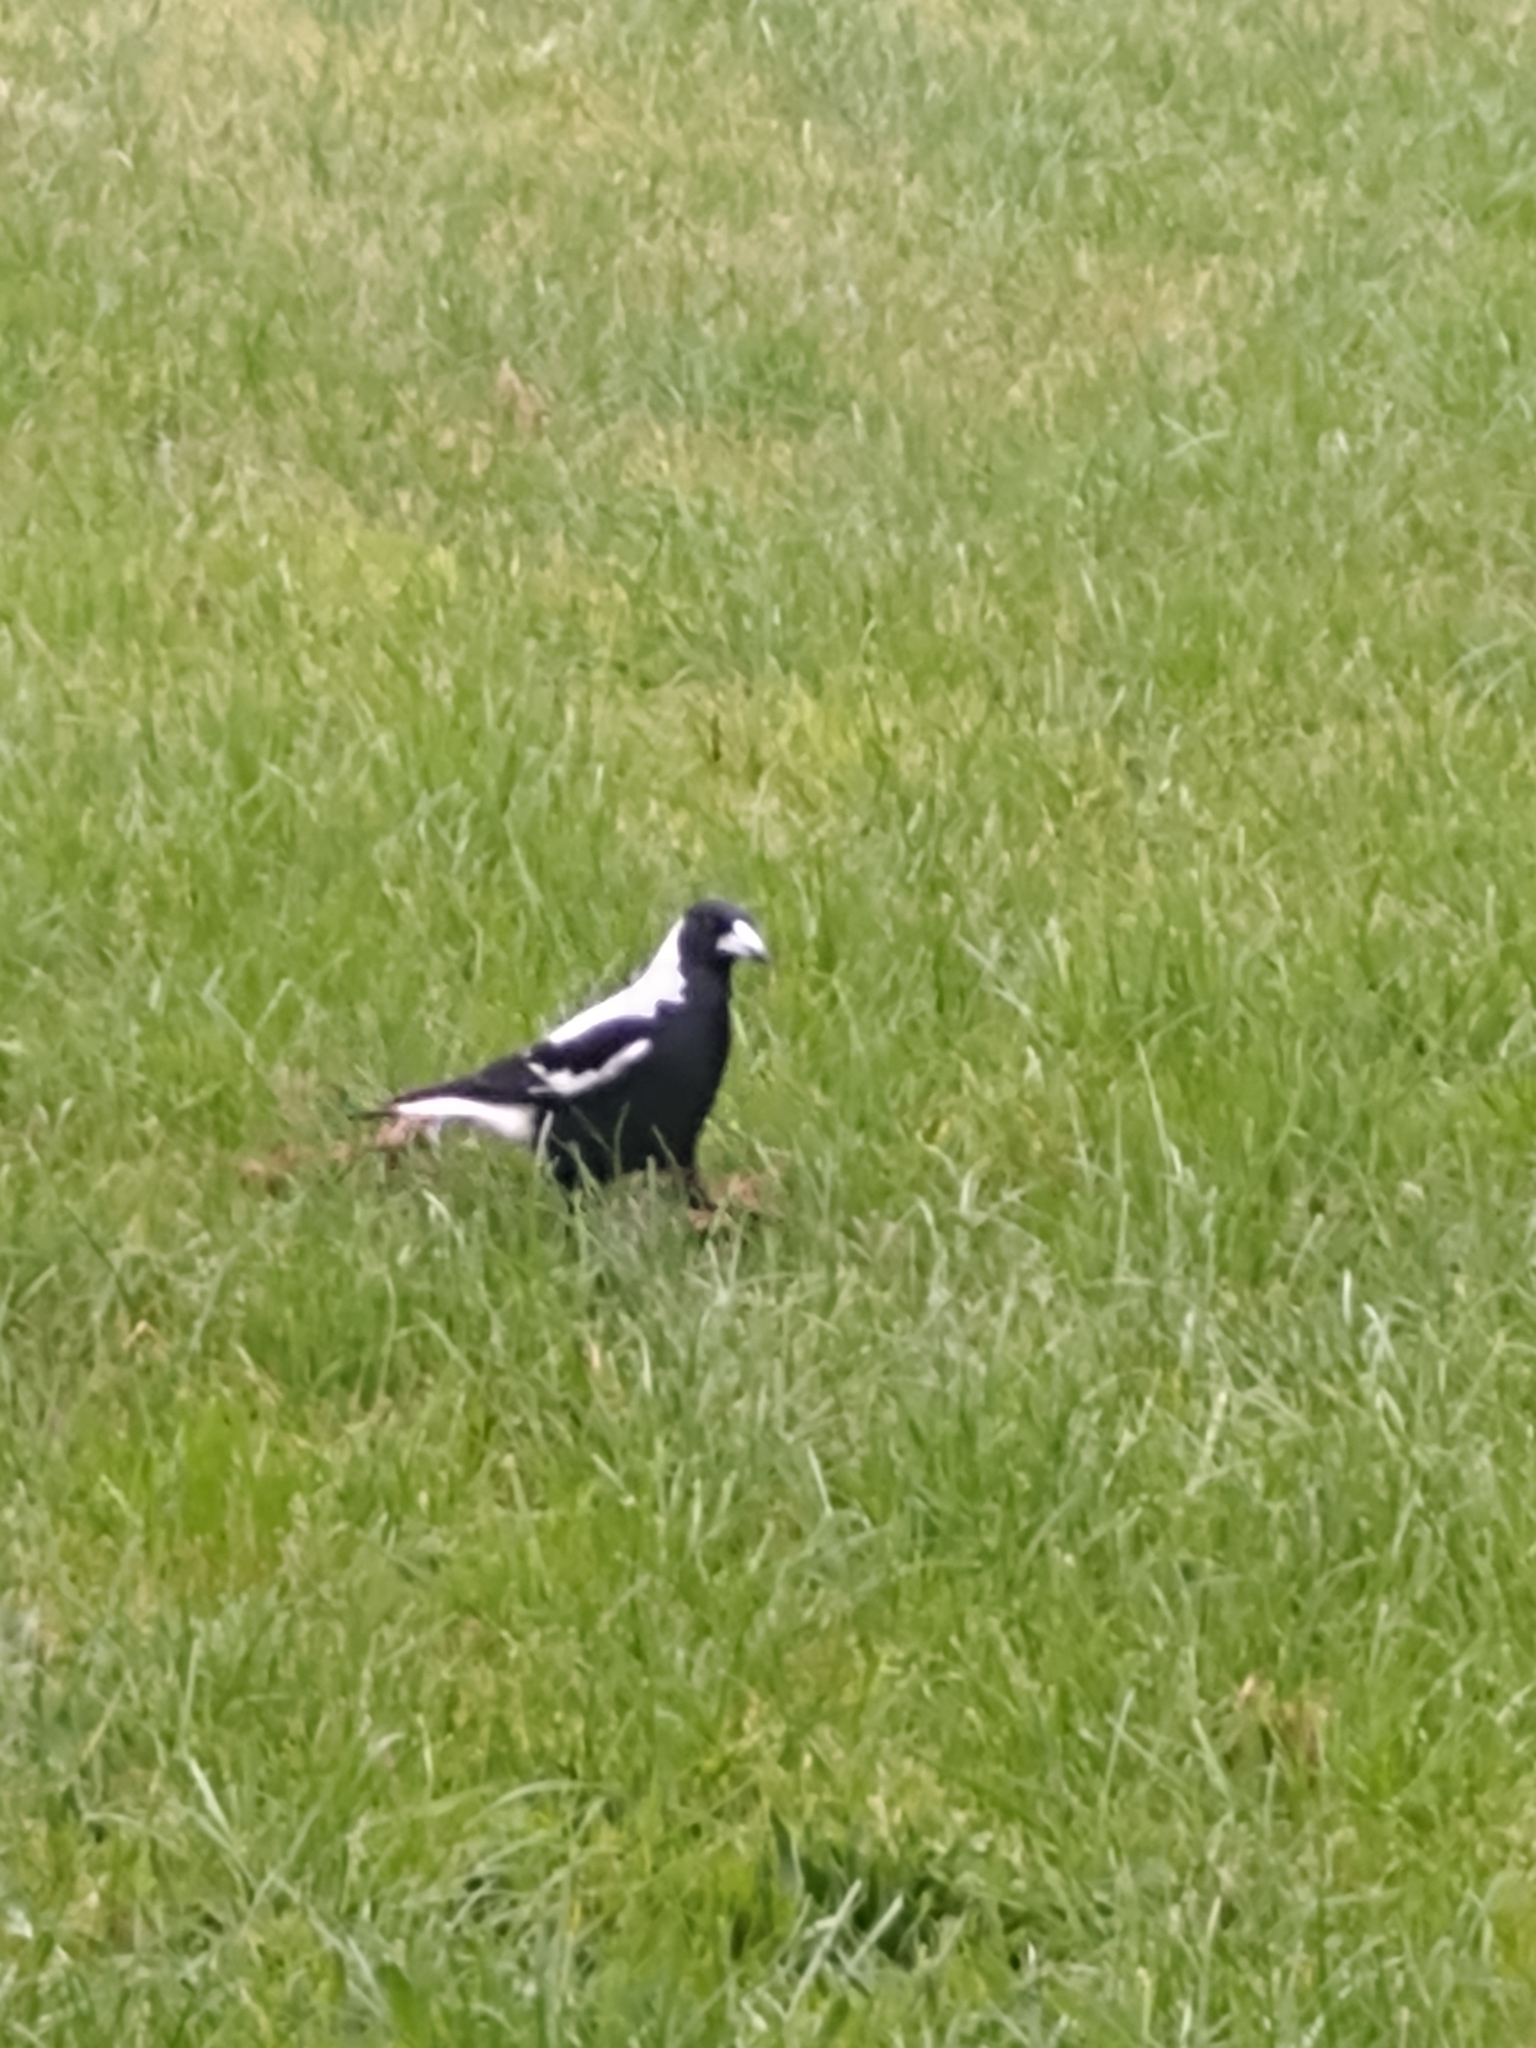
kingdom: Animalia
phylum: Chordata
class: Aves
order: Passeriformes
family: Cracticidae
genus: Gymnorhina
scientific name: Gymnorhina tibicen
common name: Australian magpie
